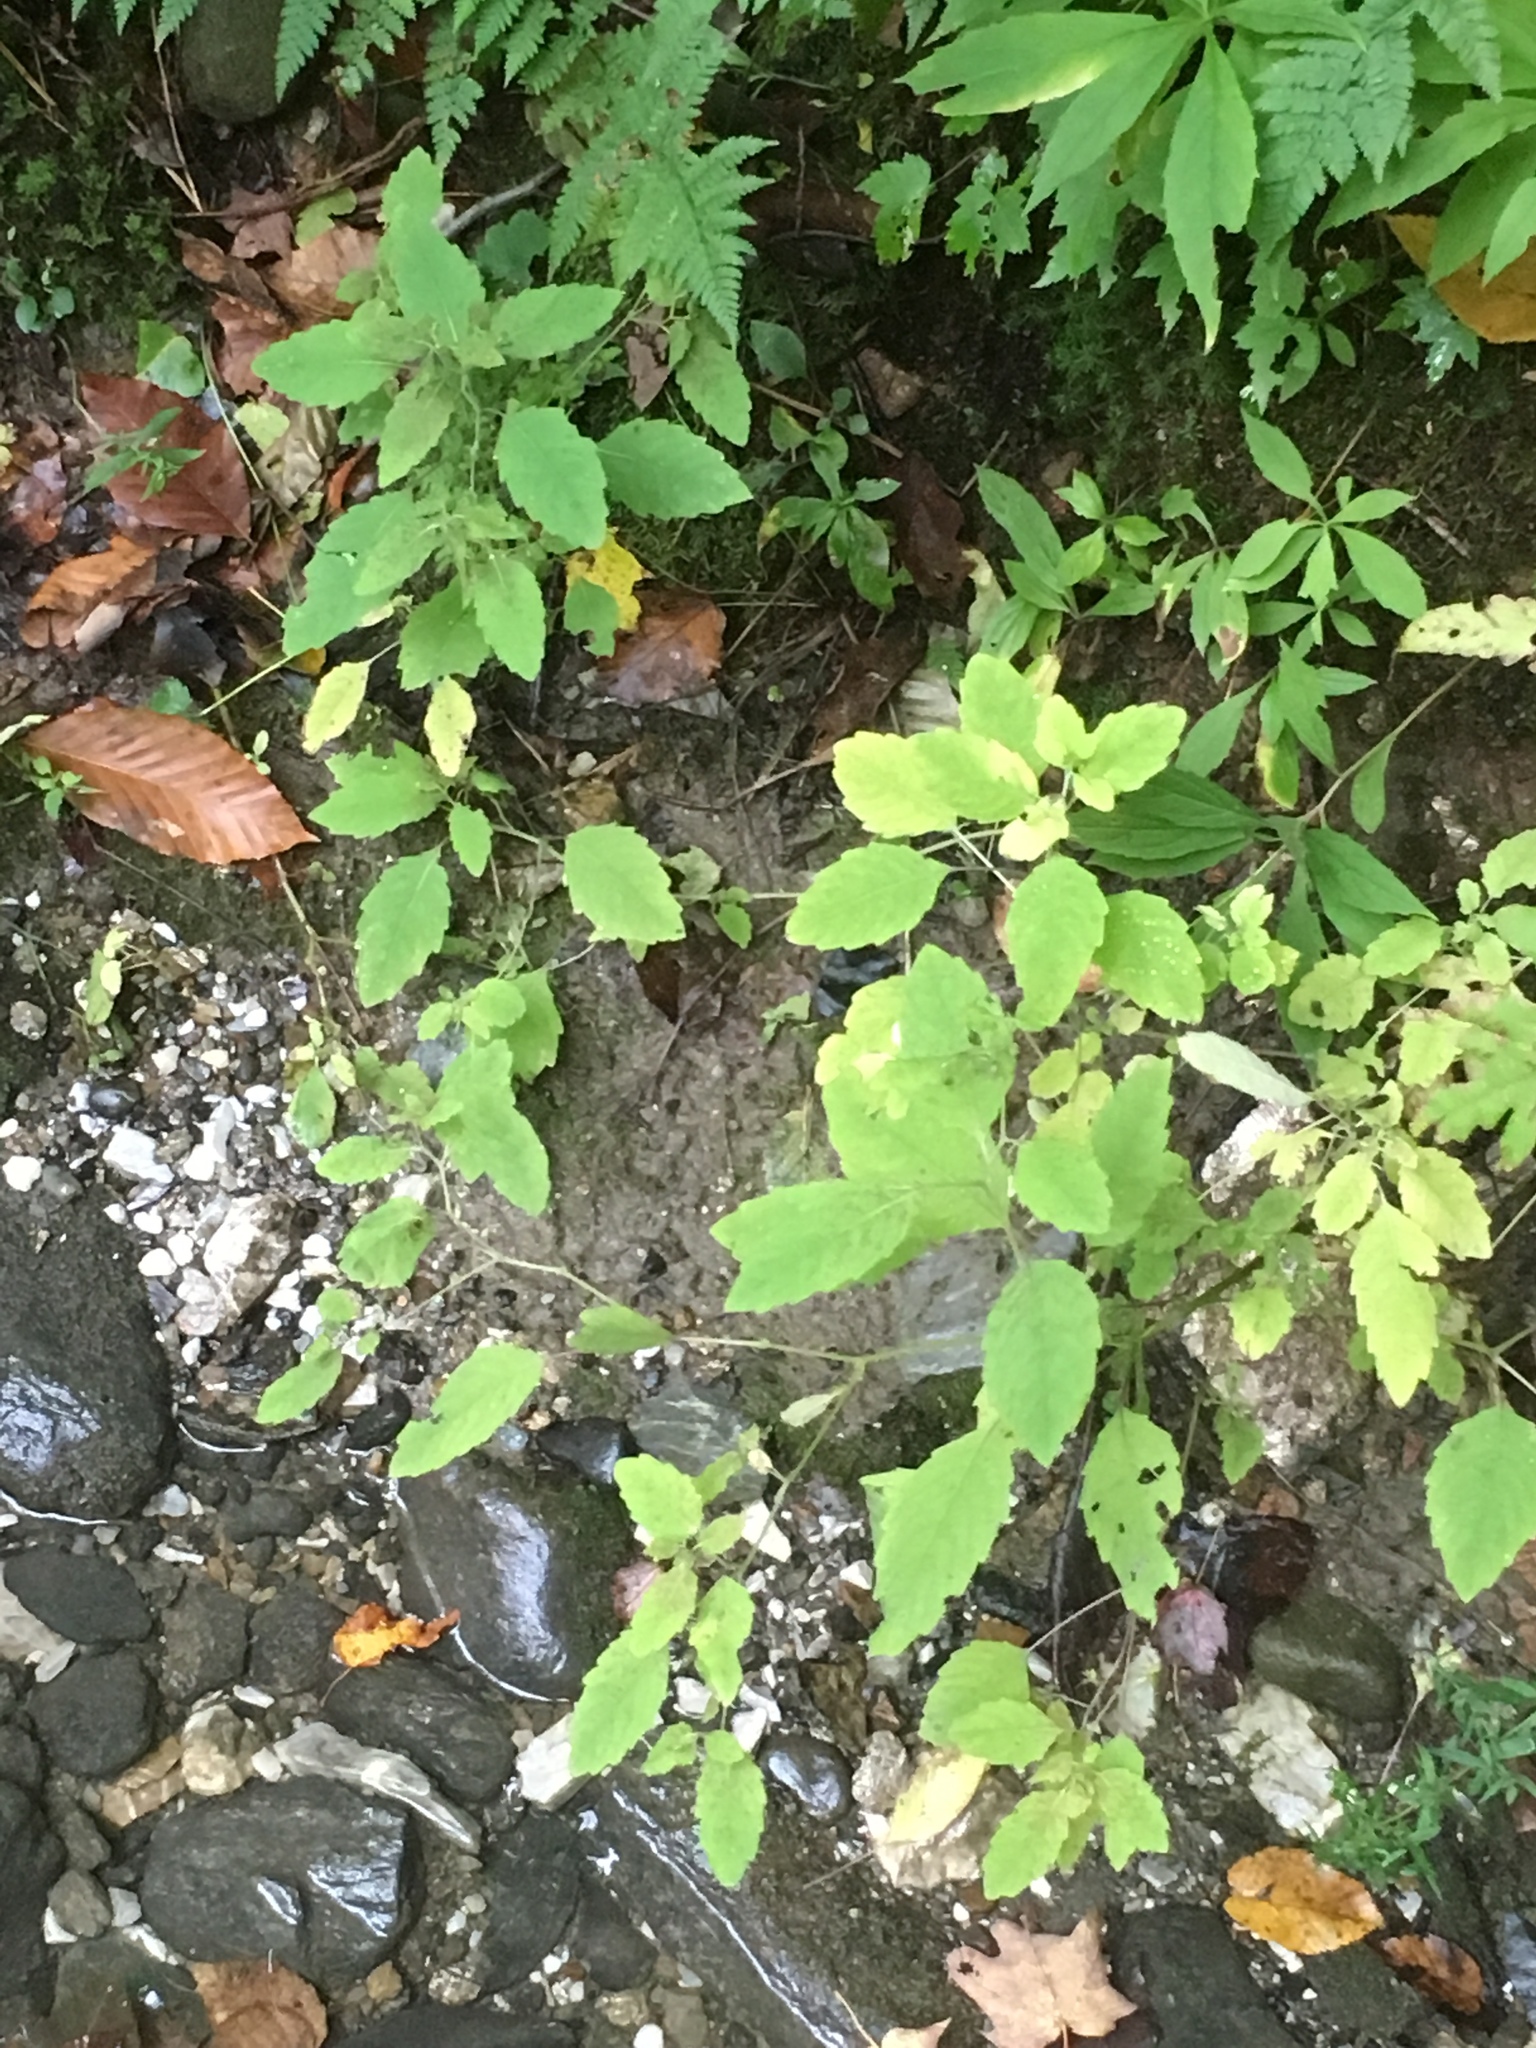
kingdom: Plantae
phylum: Tracheophyta
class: Magnoliopsida
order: Ericales
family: Balsaminaceae
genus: Impatiens
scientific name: Impatiens capensis
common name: Orange balsam
